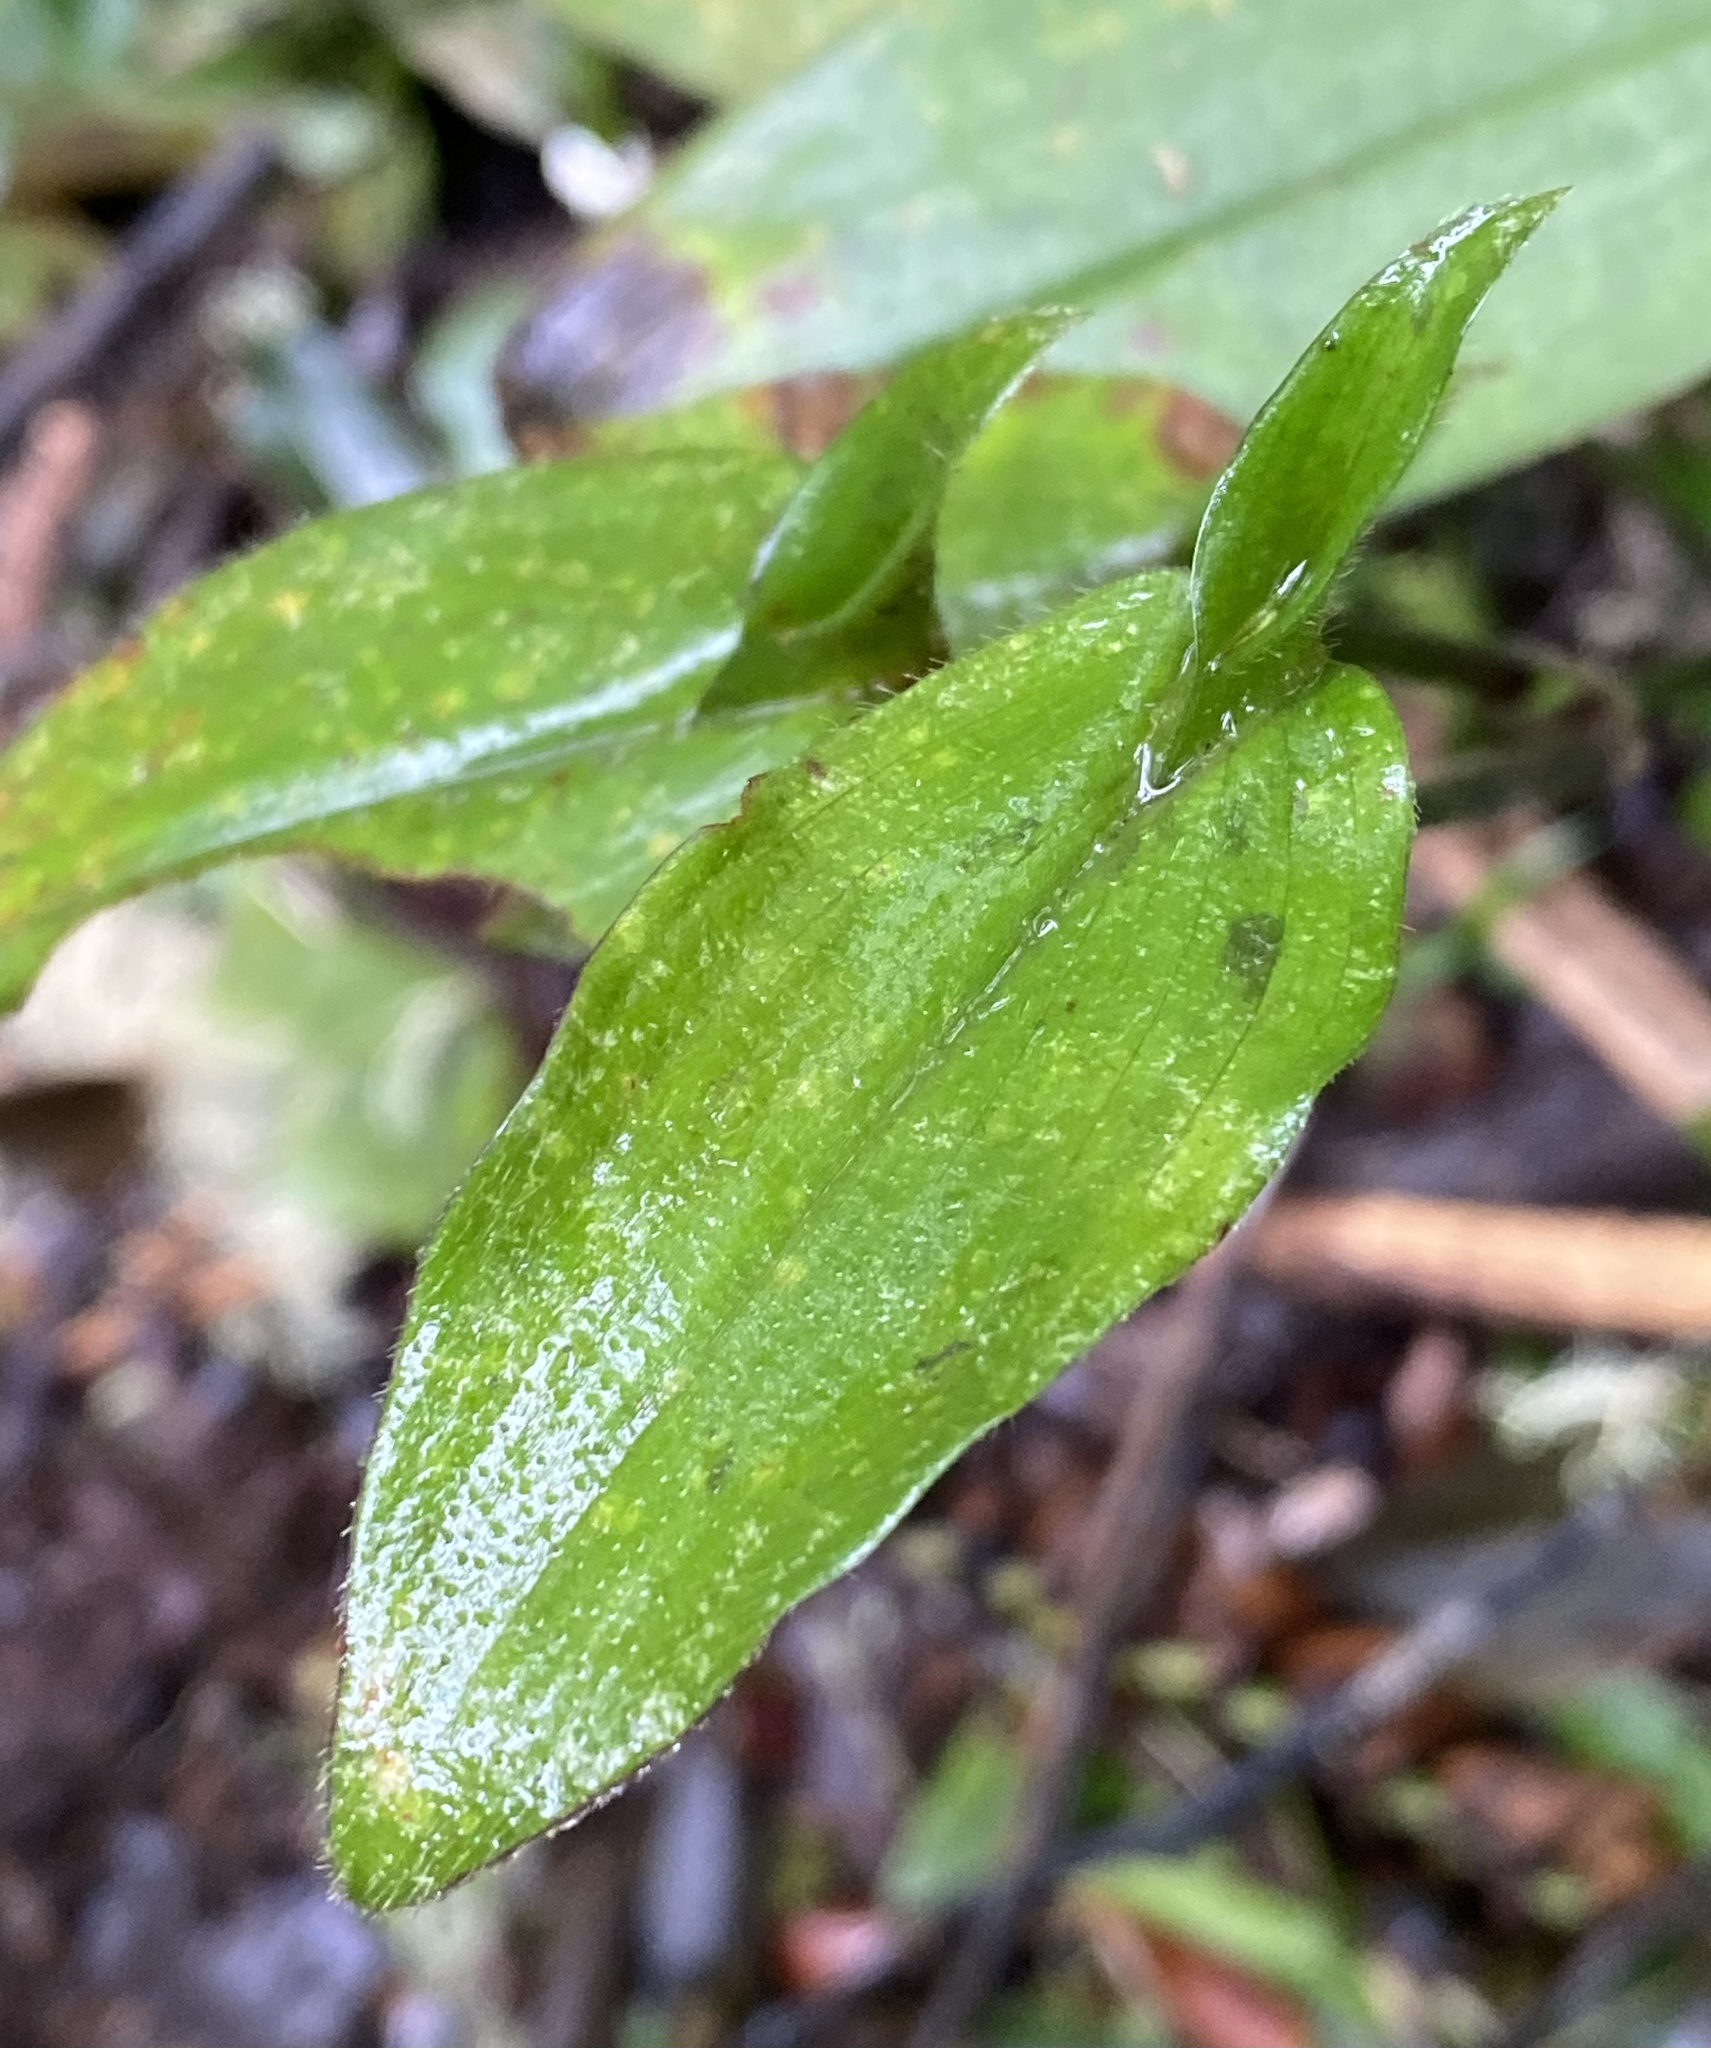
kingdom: Plantae
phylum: Tracheophyta
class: Liliopsida
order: Commelinales
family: Commelinaceae
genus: Tradescantia
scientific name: Tradescantia schippii
